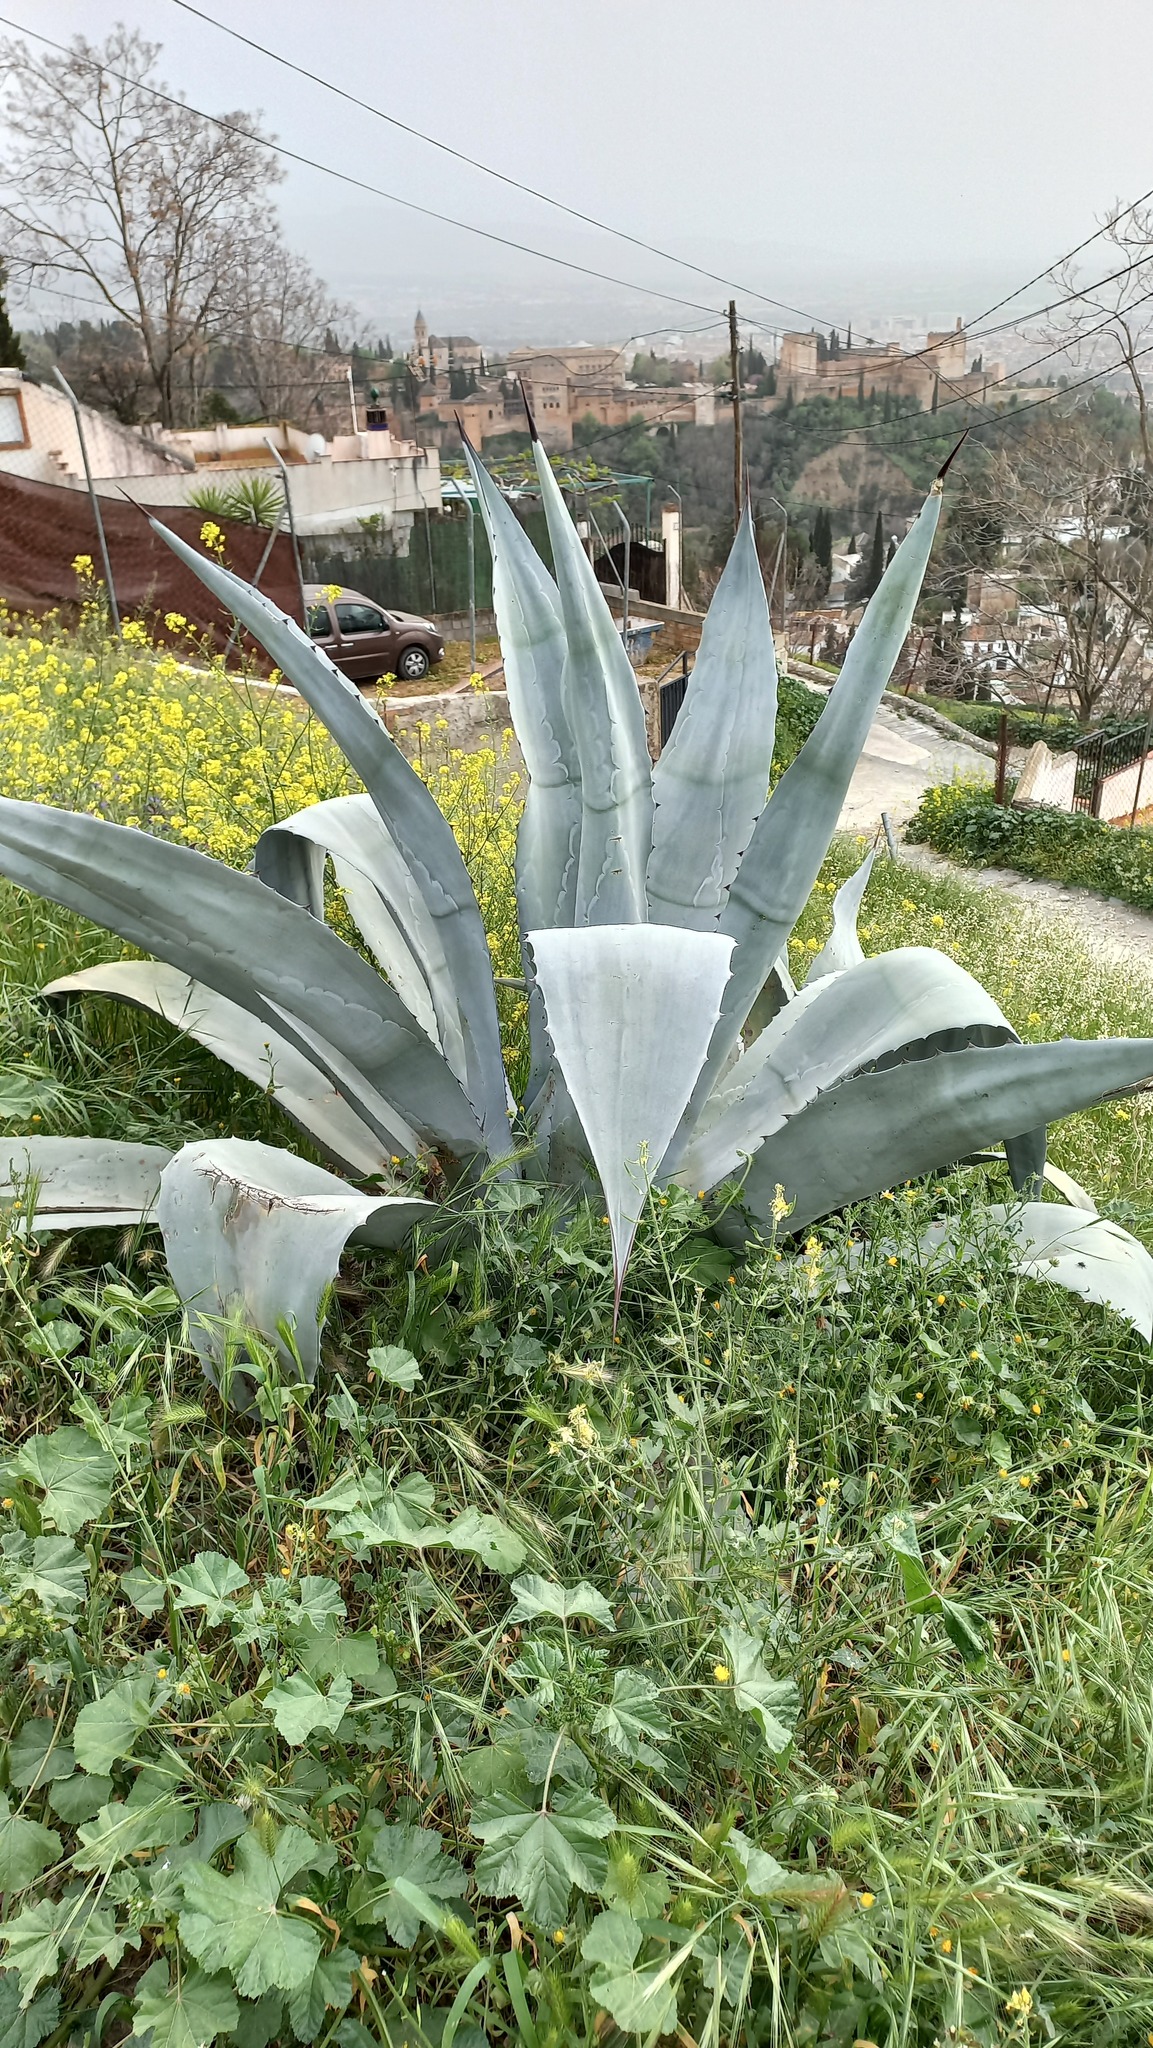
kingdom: Plantae
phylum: Tracheophyta
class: Liliopsida
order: Asparagales
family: Asparagaceae
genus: Agave
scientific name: Agave americana
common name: Centuryplant
